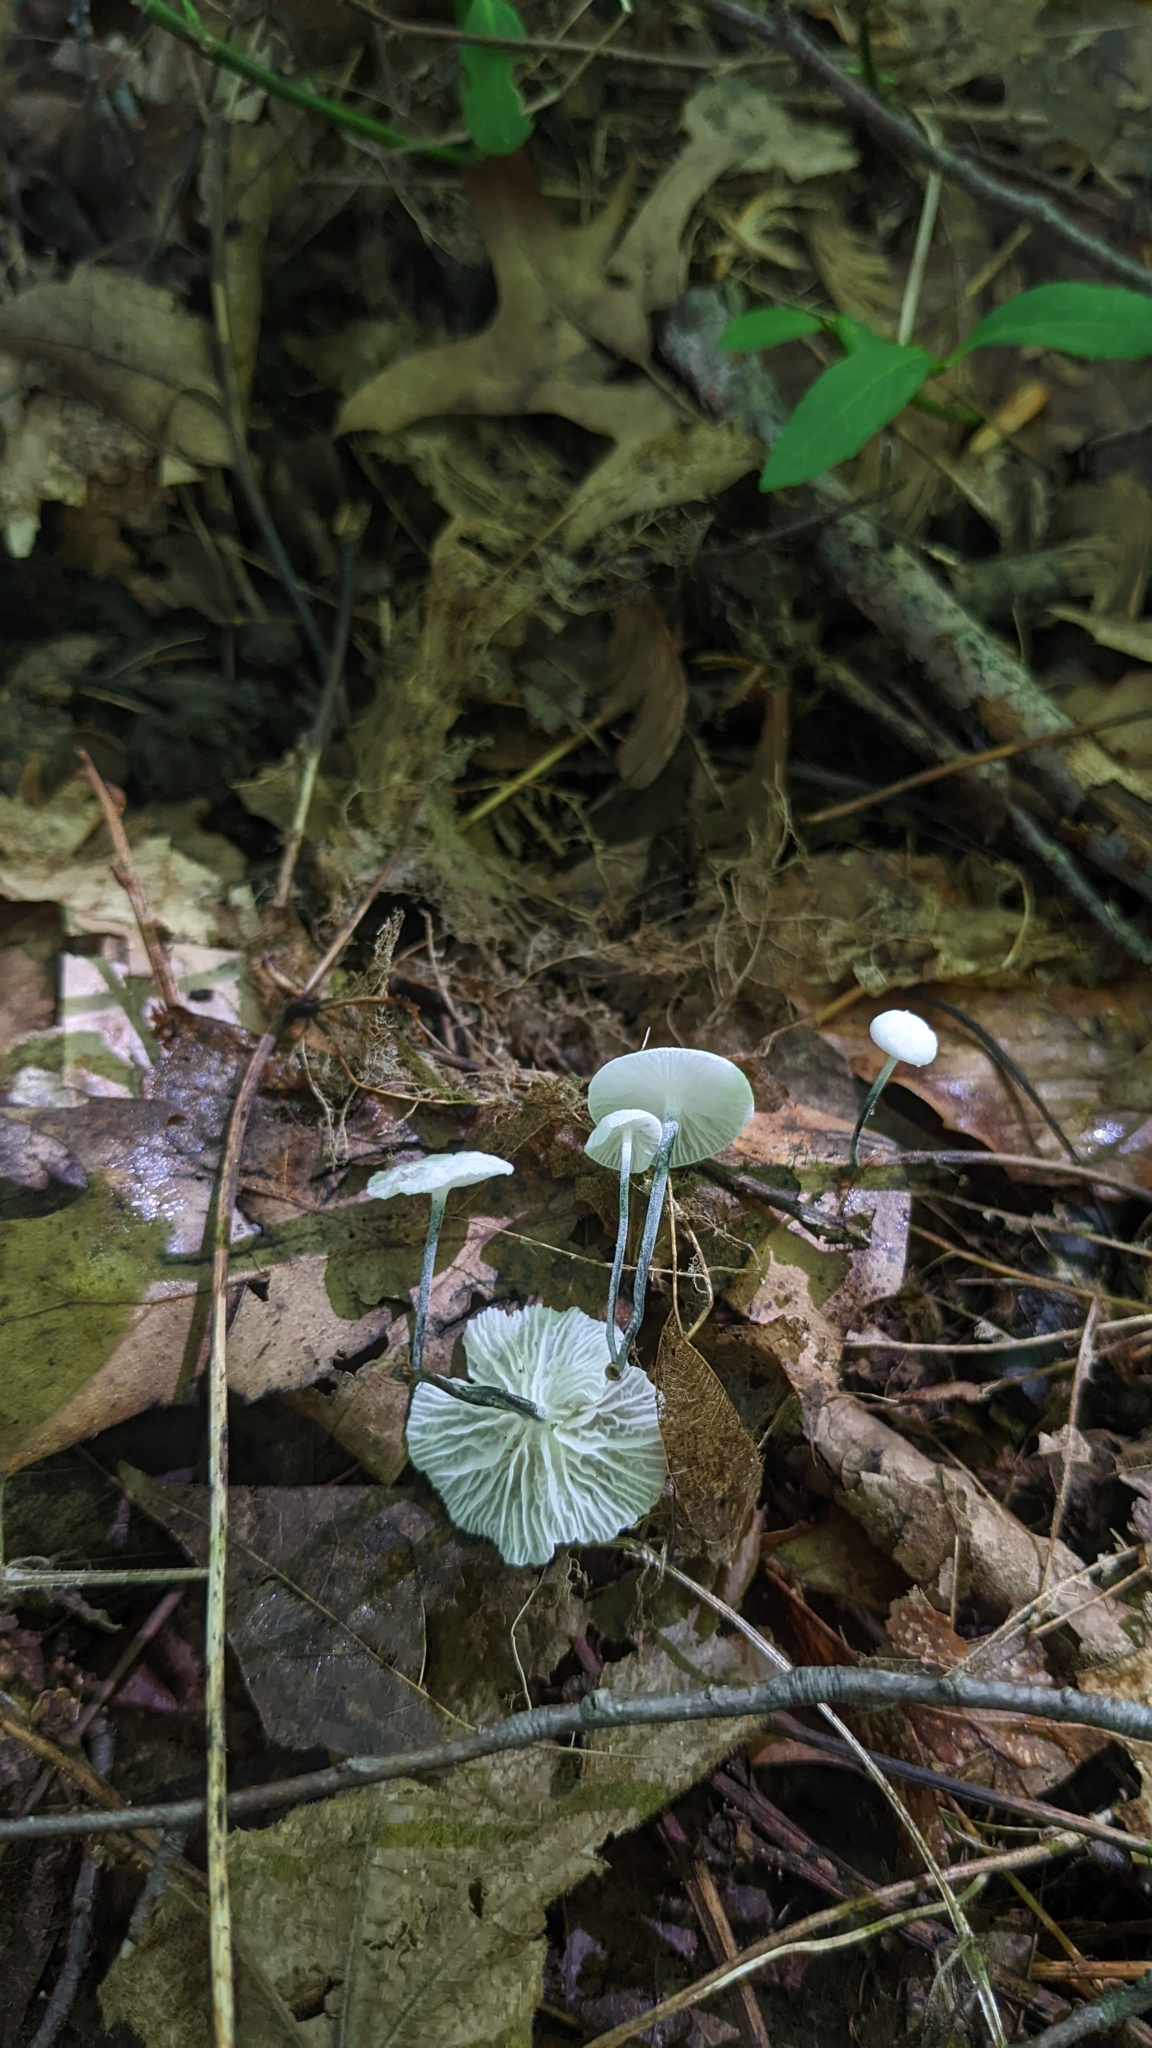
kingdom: Fungi
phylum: Basidiomycota
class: Agaricomycetes
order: Agaricales
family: Marasmiaceae
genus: Tetrapyrgos
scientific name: Tetrapyrgos nigripes
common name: Black-stalked marasmius
